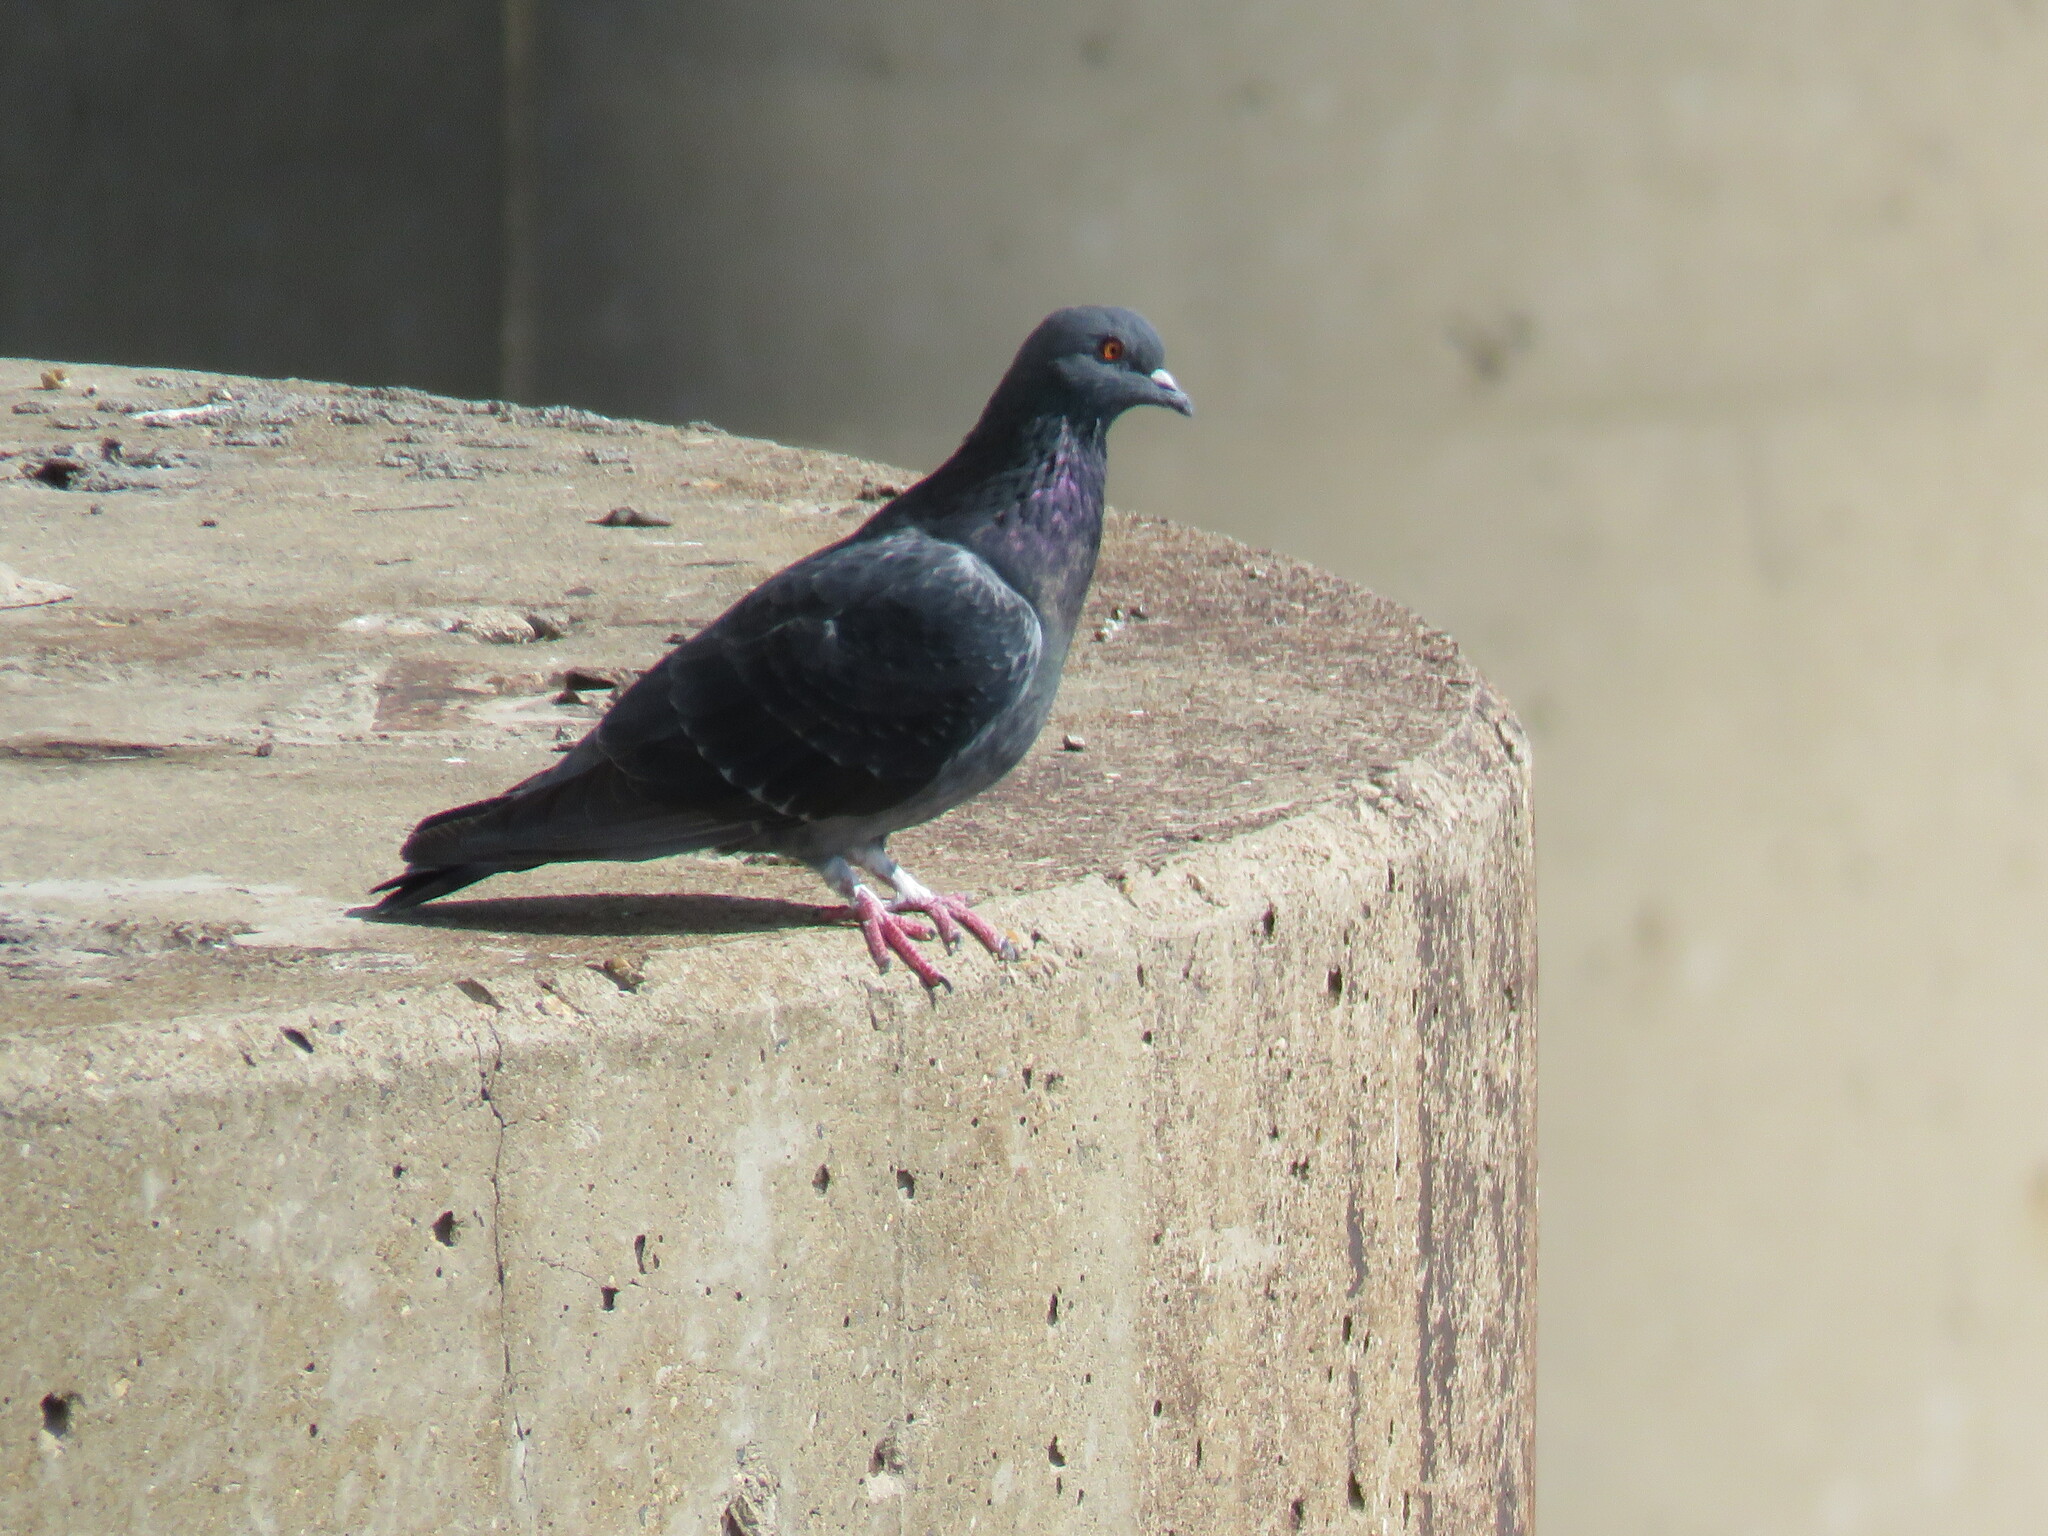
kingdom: Animalia
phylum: Chordata
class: Aves
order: Columbiformes
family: Columbidae
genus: Columba
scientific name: Columba livia
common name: Rock pigeon
